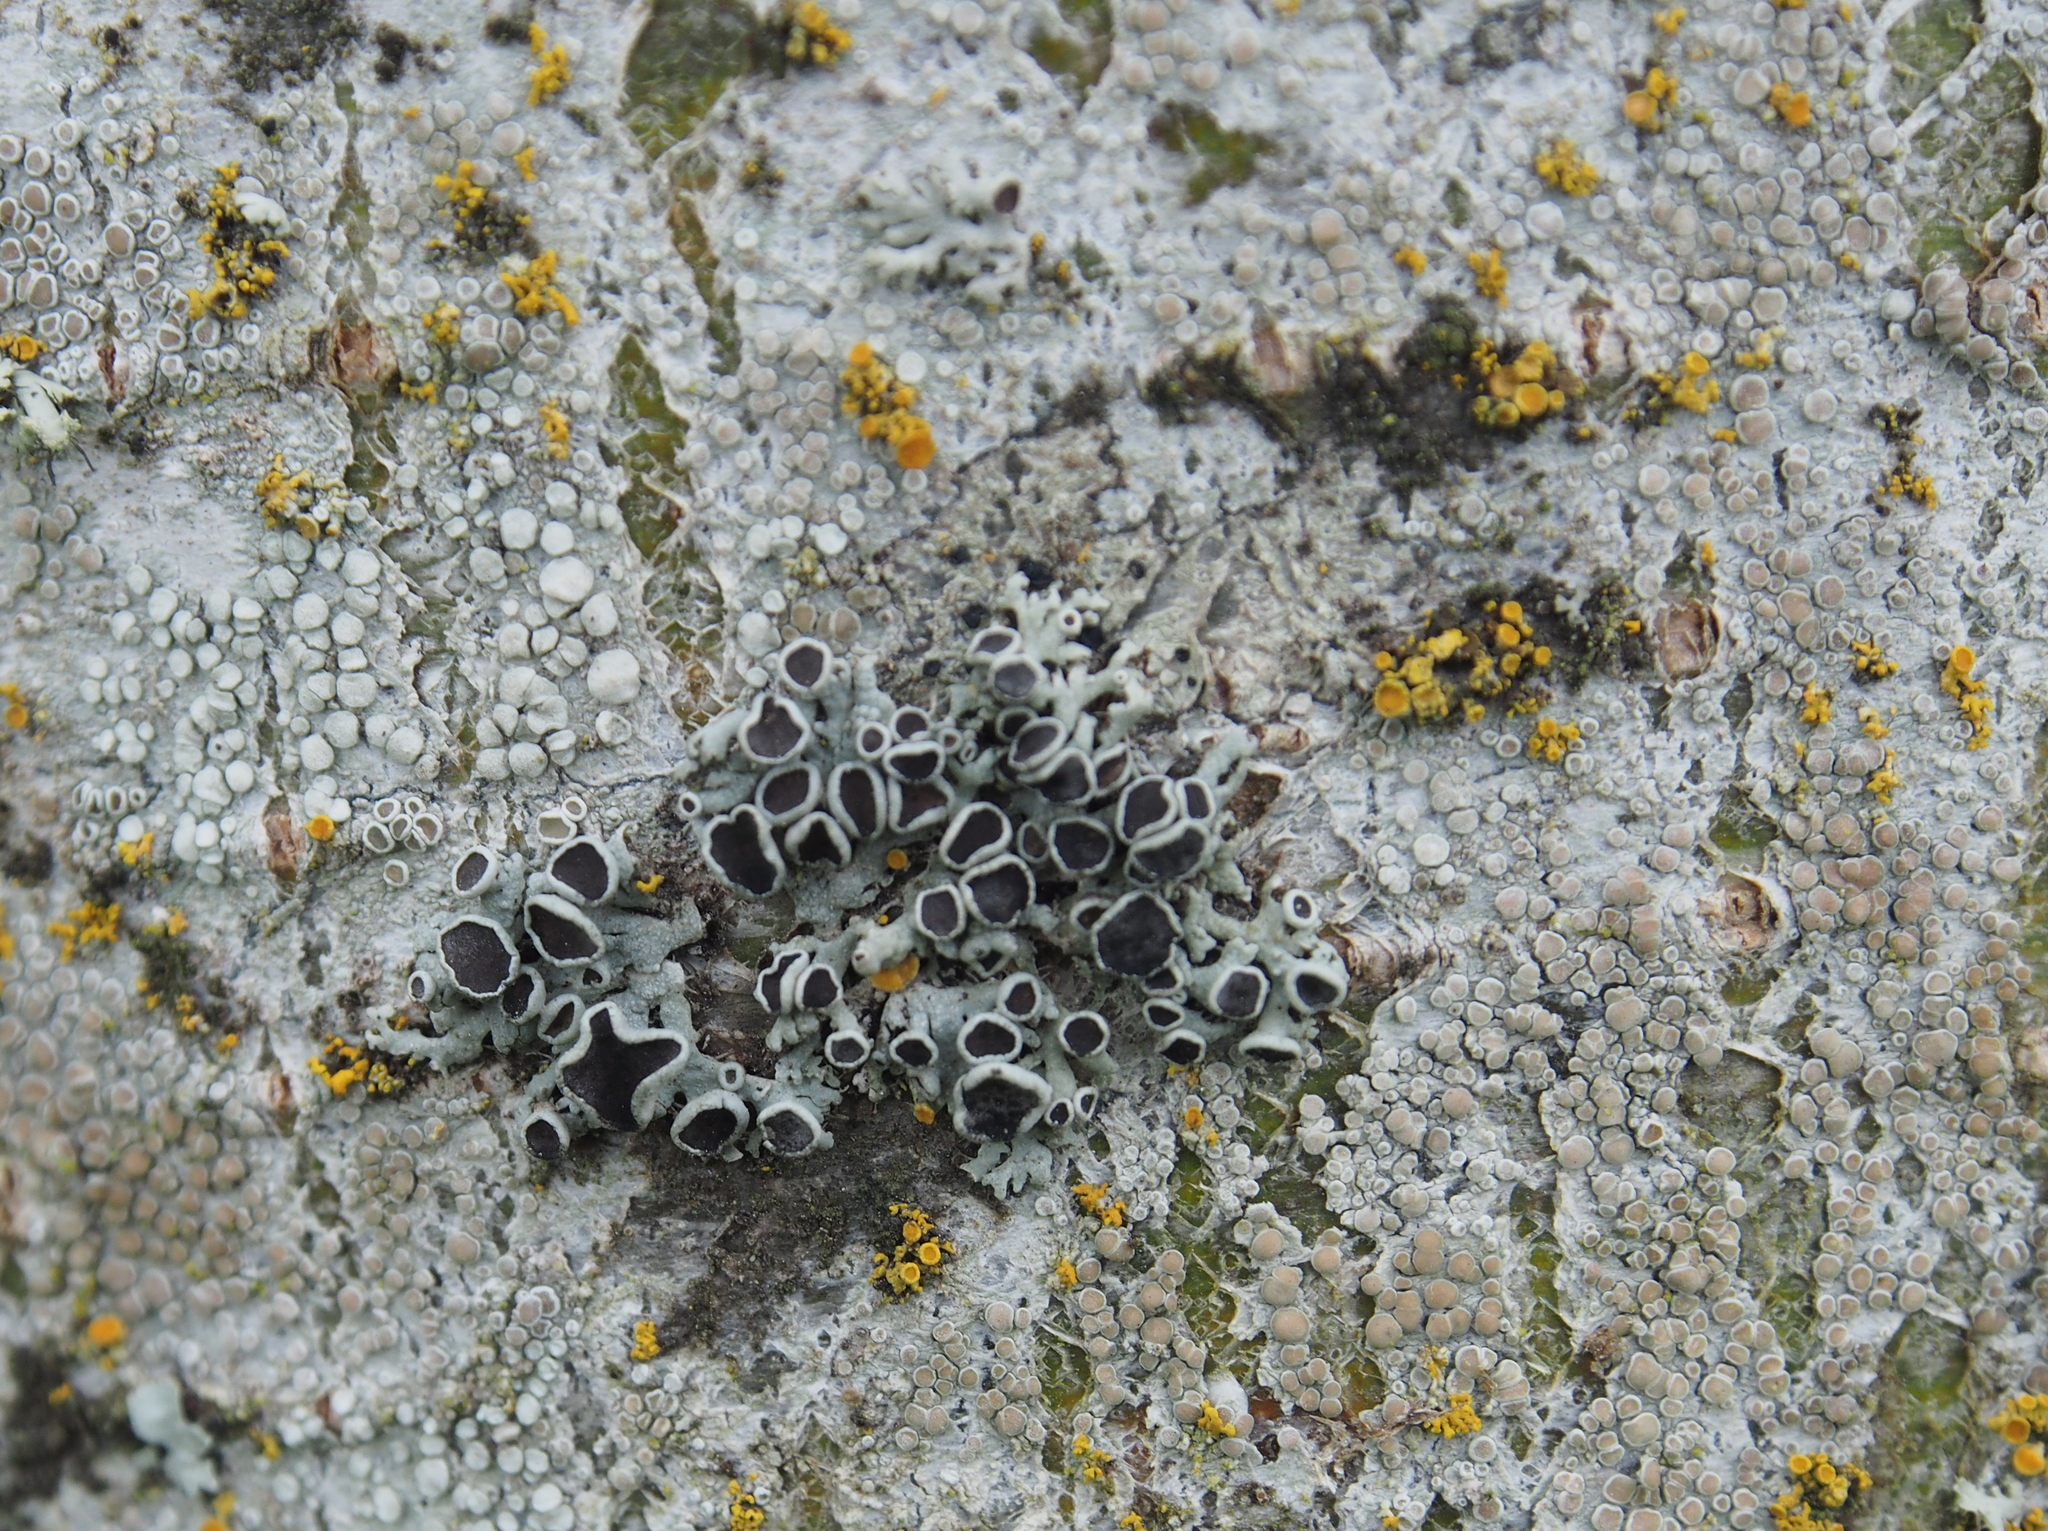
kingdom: Fungi
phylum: Ascomycota
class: Lecanoromycetes
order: Caliciales
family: Physciaceae
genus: Physcia
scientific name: Physcia aipolia
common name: Hoary rosette lichen
